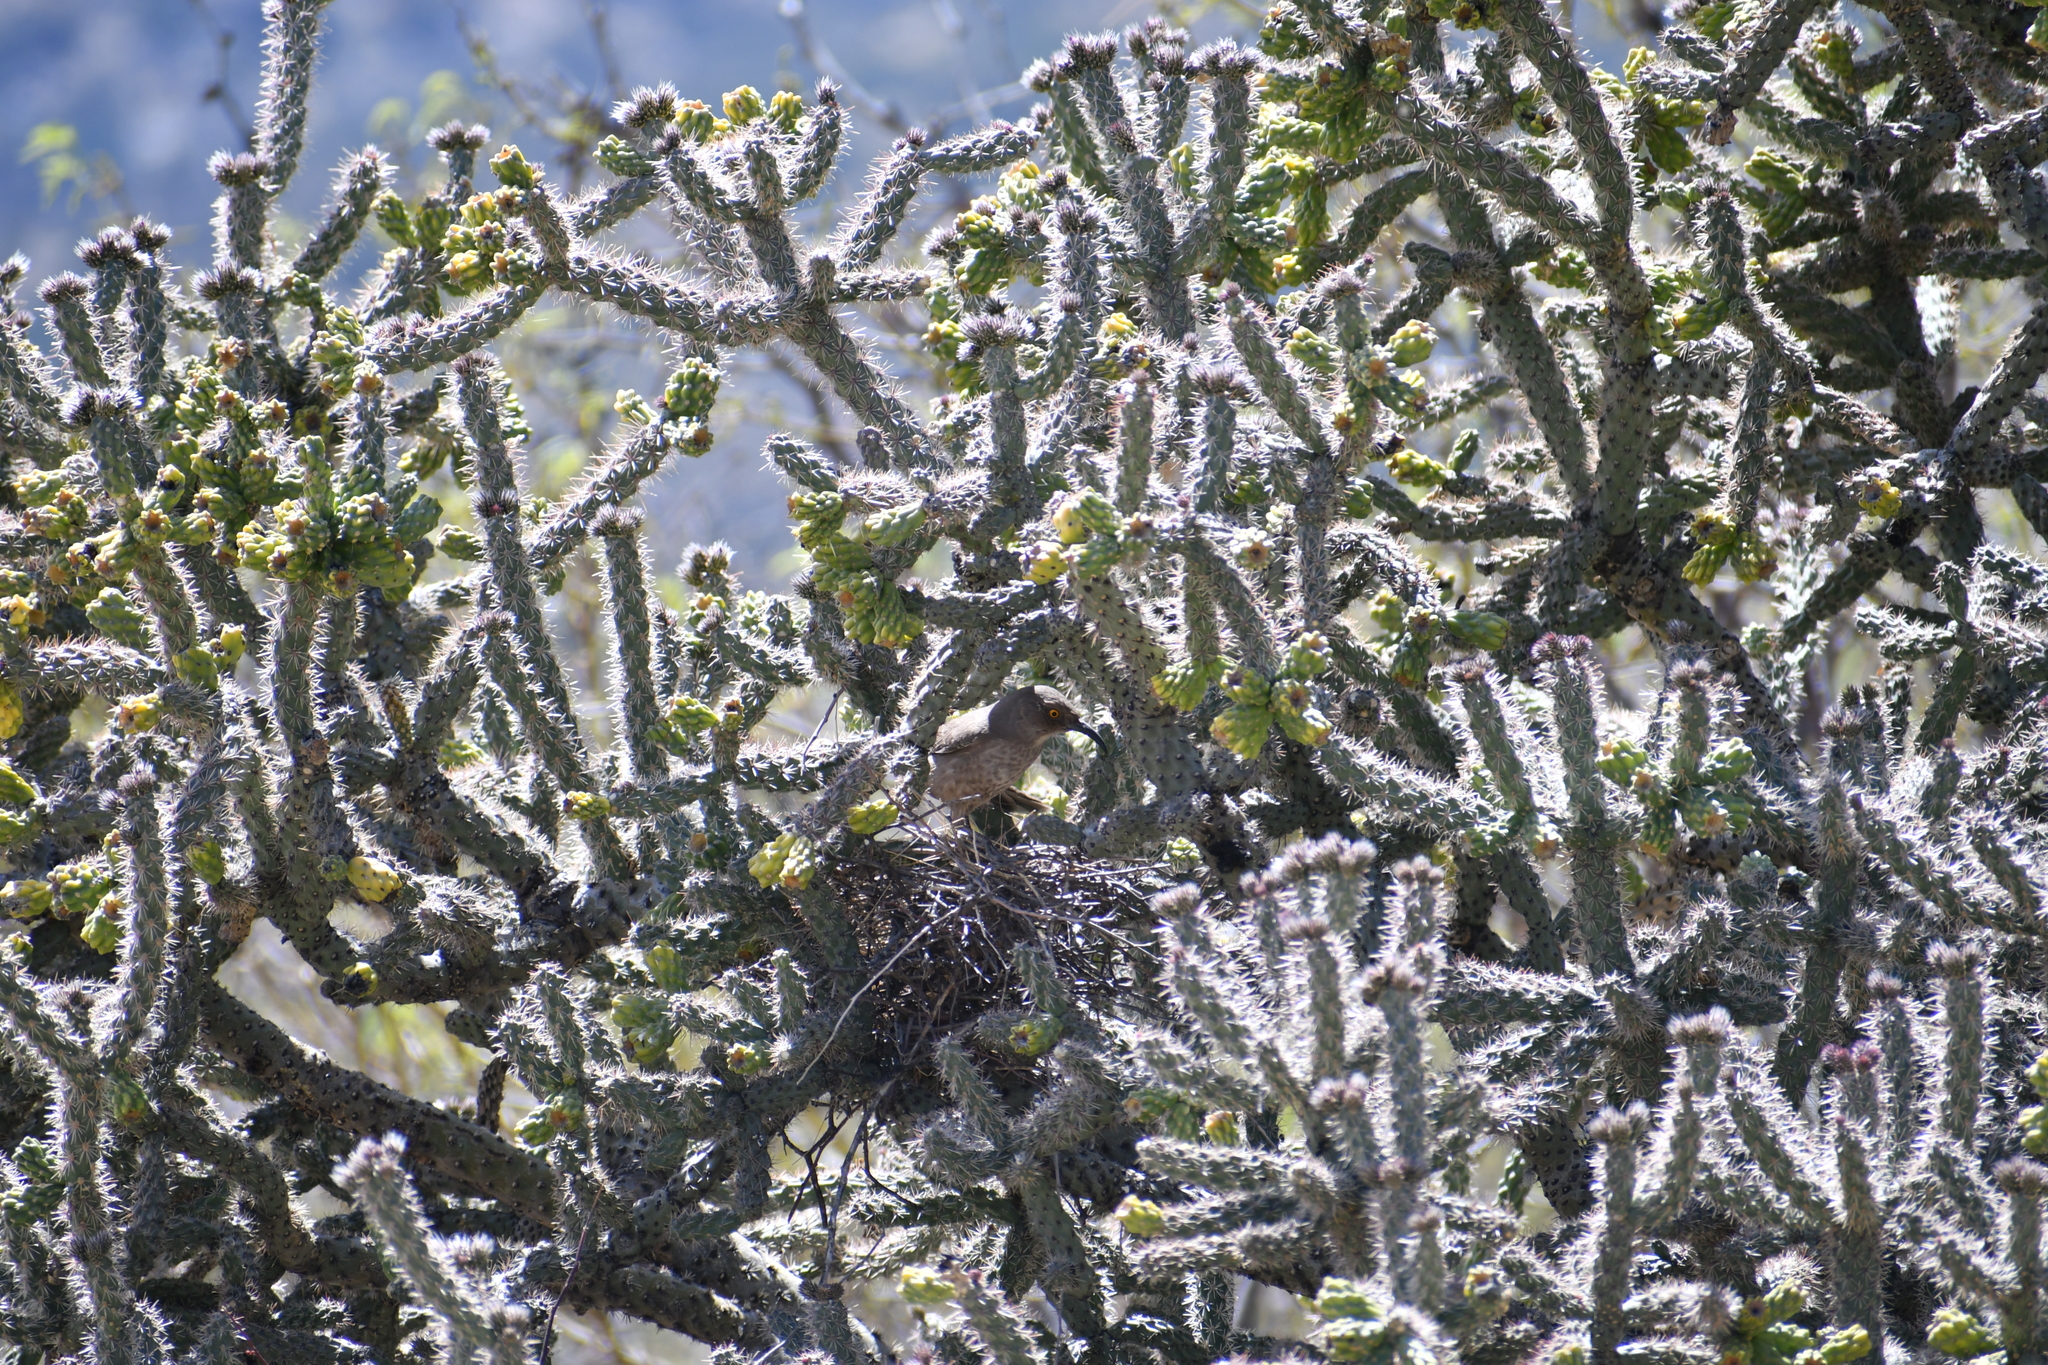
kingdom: Animalia
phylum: Chordata
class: Aves
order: Passeriformes
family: Mimidae
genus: Toxostoma
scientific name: Toxostoma curvirostre
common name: Curve-billed thrasher
